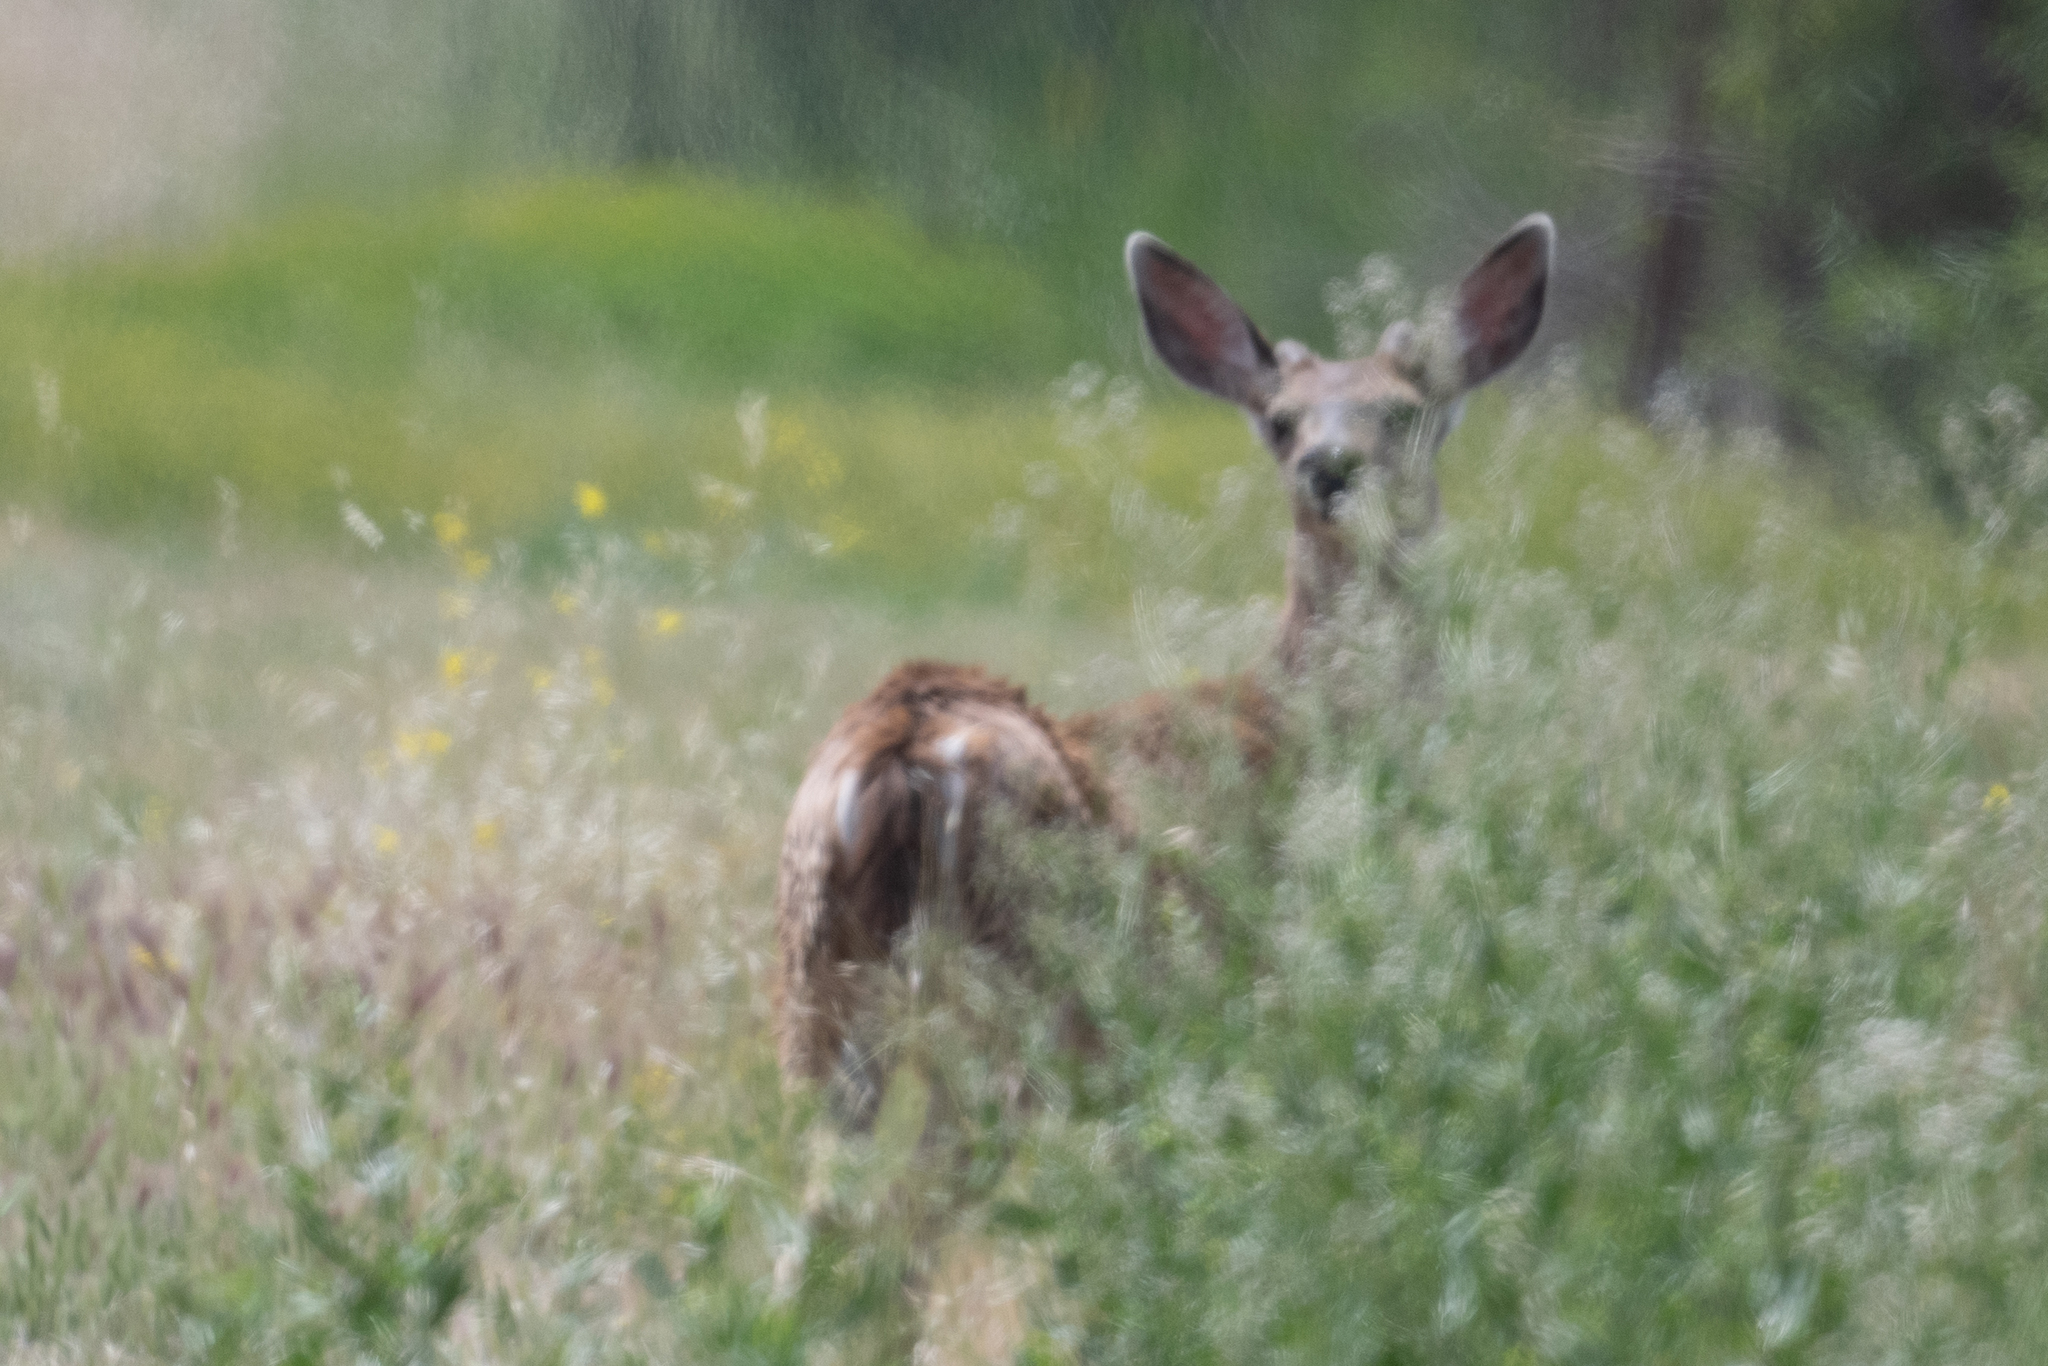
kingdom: Animalia
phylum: Chordata
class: Mammalia
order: Artiodactyla
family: Cervidae
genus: Odocoileus
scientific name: Odocoileus hemionus
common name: Mule deer
